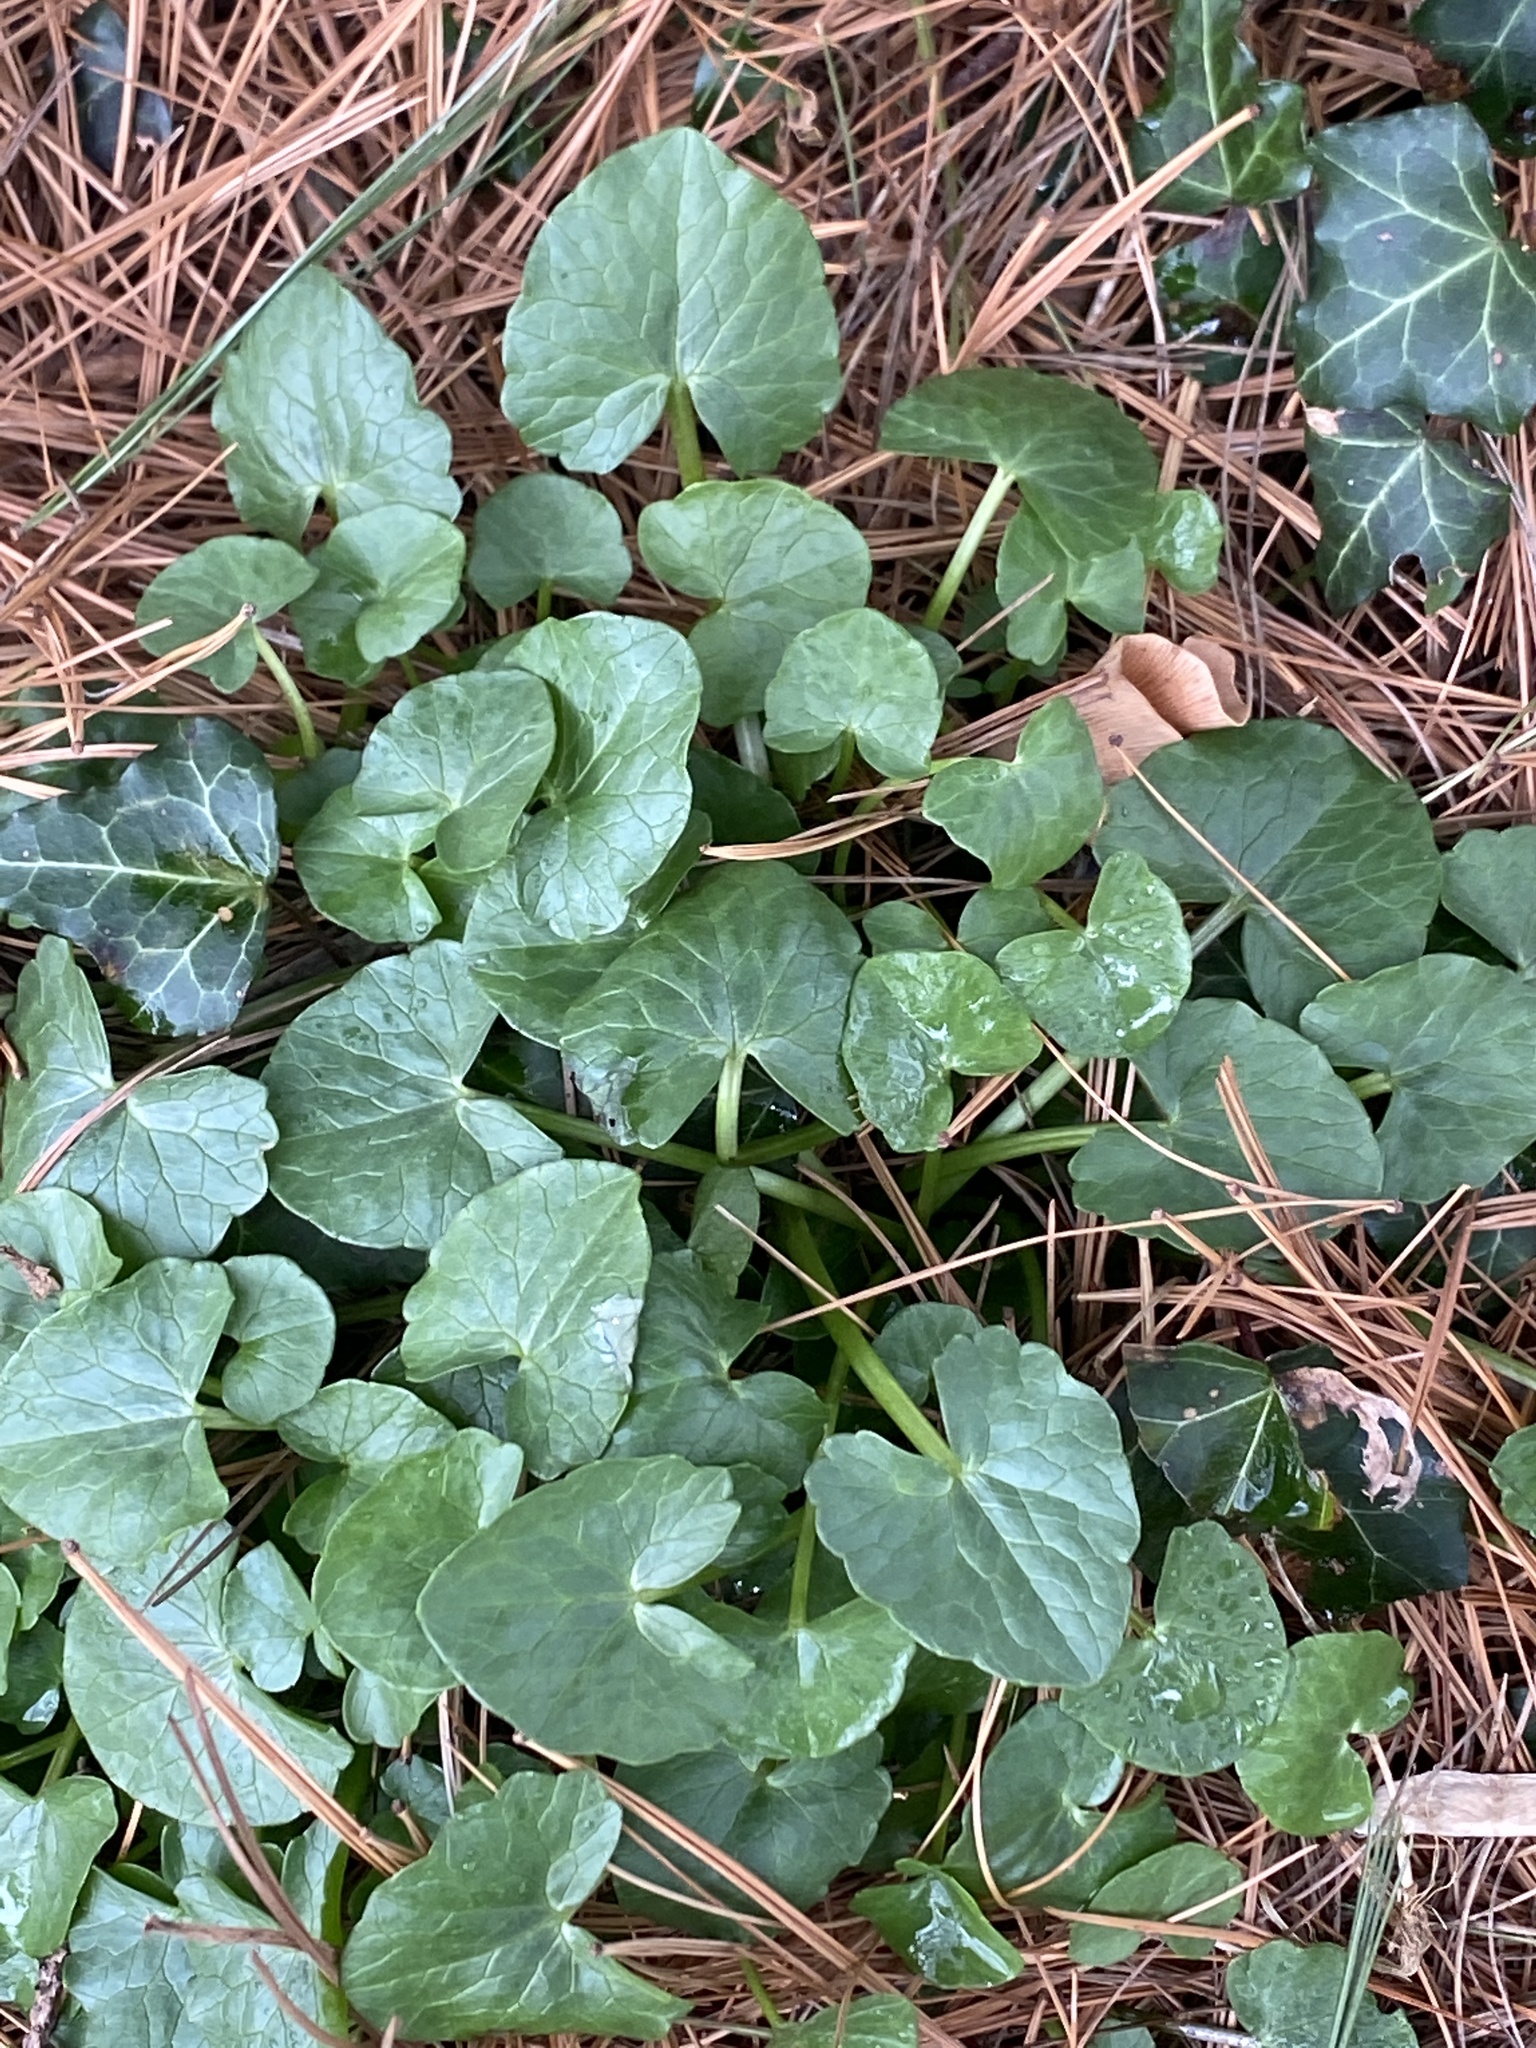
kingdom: Plantae
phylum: Tracheophyta
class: Magnoliopsida
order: Ranunculales
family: Ranunculaceae
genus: Ficaria
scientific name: Ficaria verna
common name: Lesser celandine
